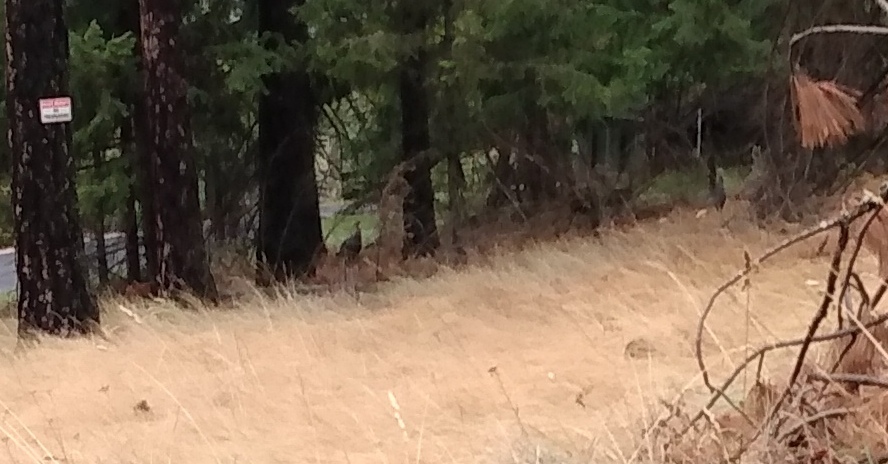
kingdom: Animalia
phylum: Chordata
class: Aves
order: Galliformes
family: Phasianidae
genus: Meleagris
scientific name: Meleagris gallopavo
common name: Wild turkey
